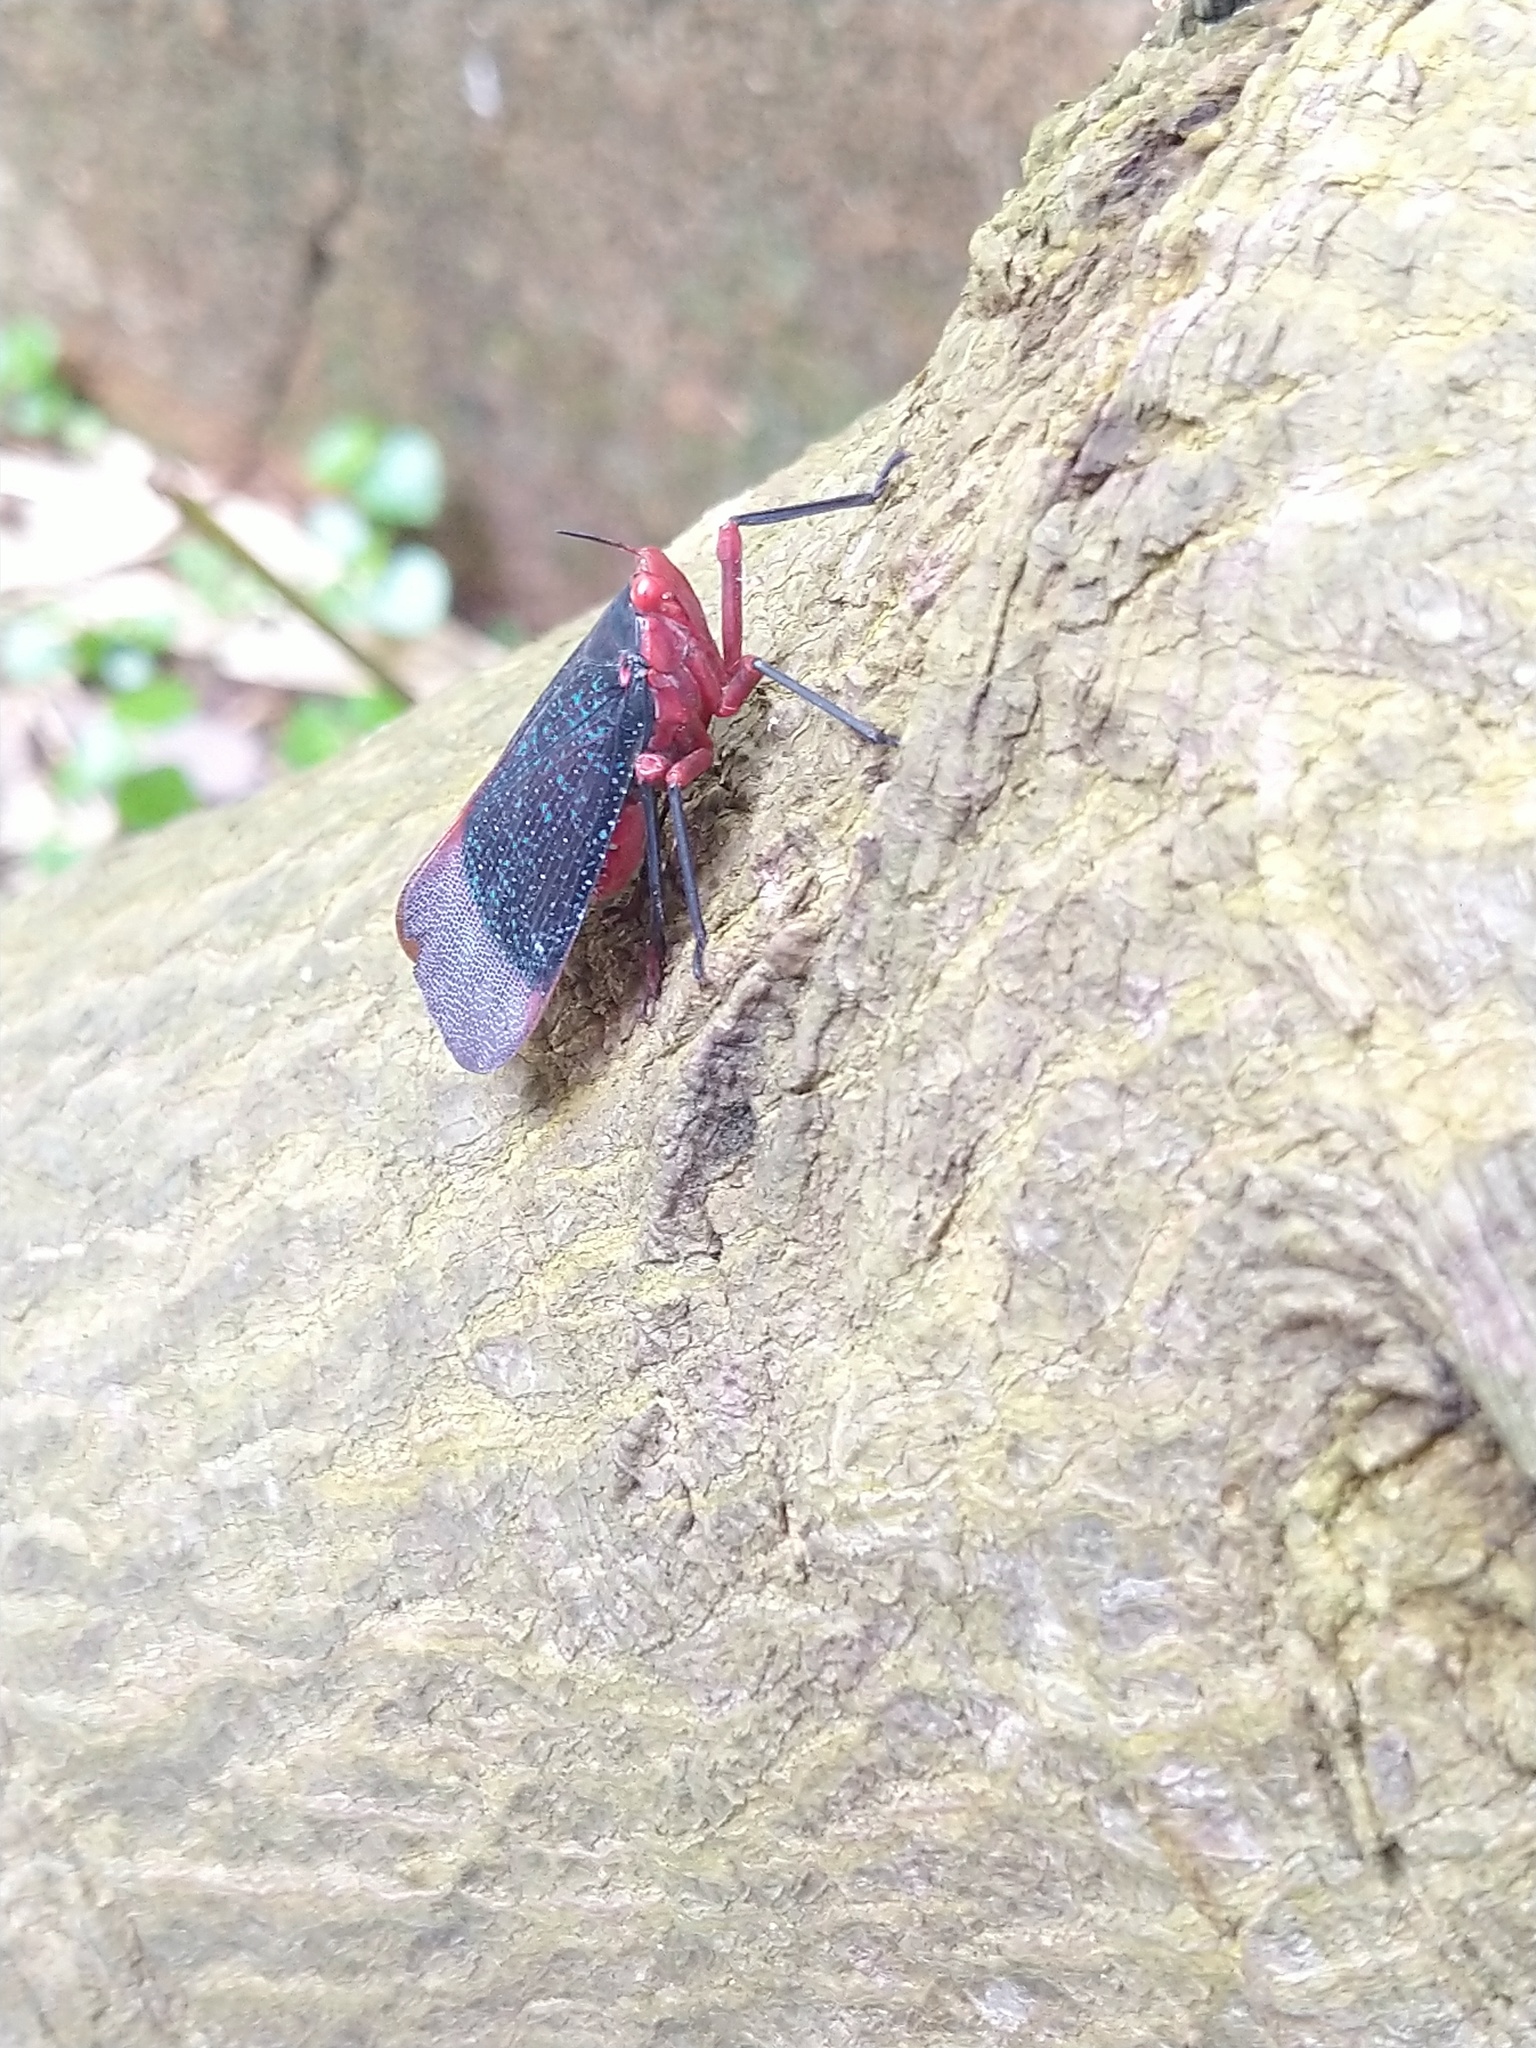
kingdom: Animalia
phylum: Arthropoda
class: Insecta
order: Hemiptera
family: Fulgoridae
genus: Kalidasa
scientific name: Kalidasa lanata
